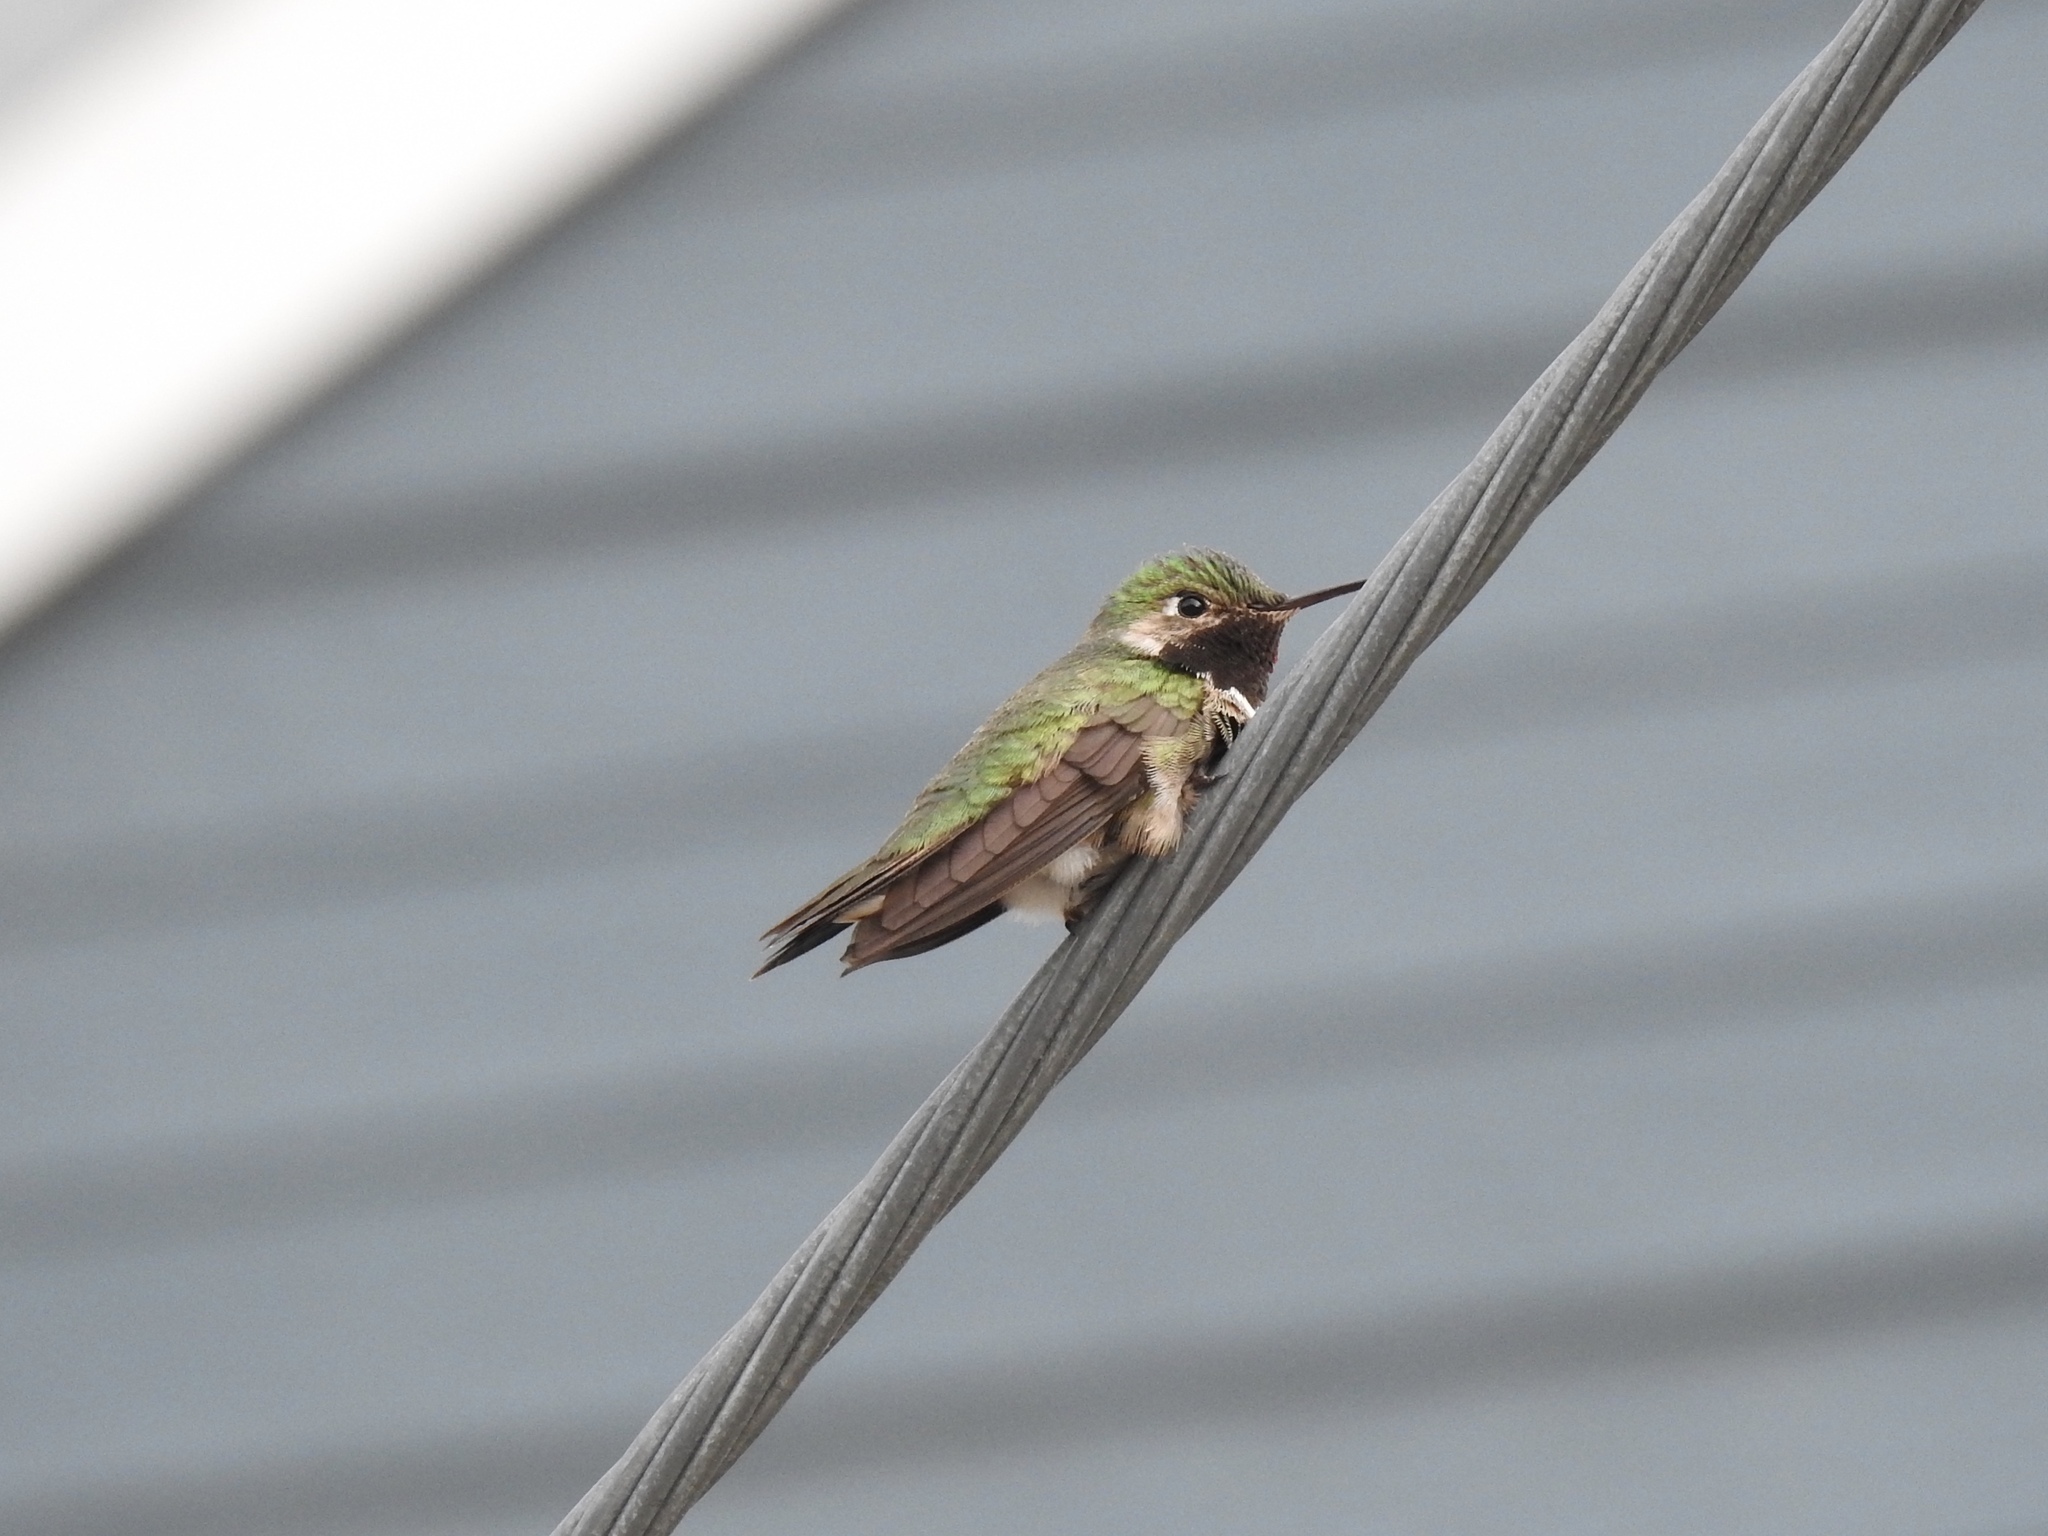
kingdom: Animalia
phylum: Chordata
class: Aves
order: Apodiformes
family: Trochilidae
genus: Selasphorus
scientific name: Selasphorus platycercus
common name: Broad-tailed hummingbird
